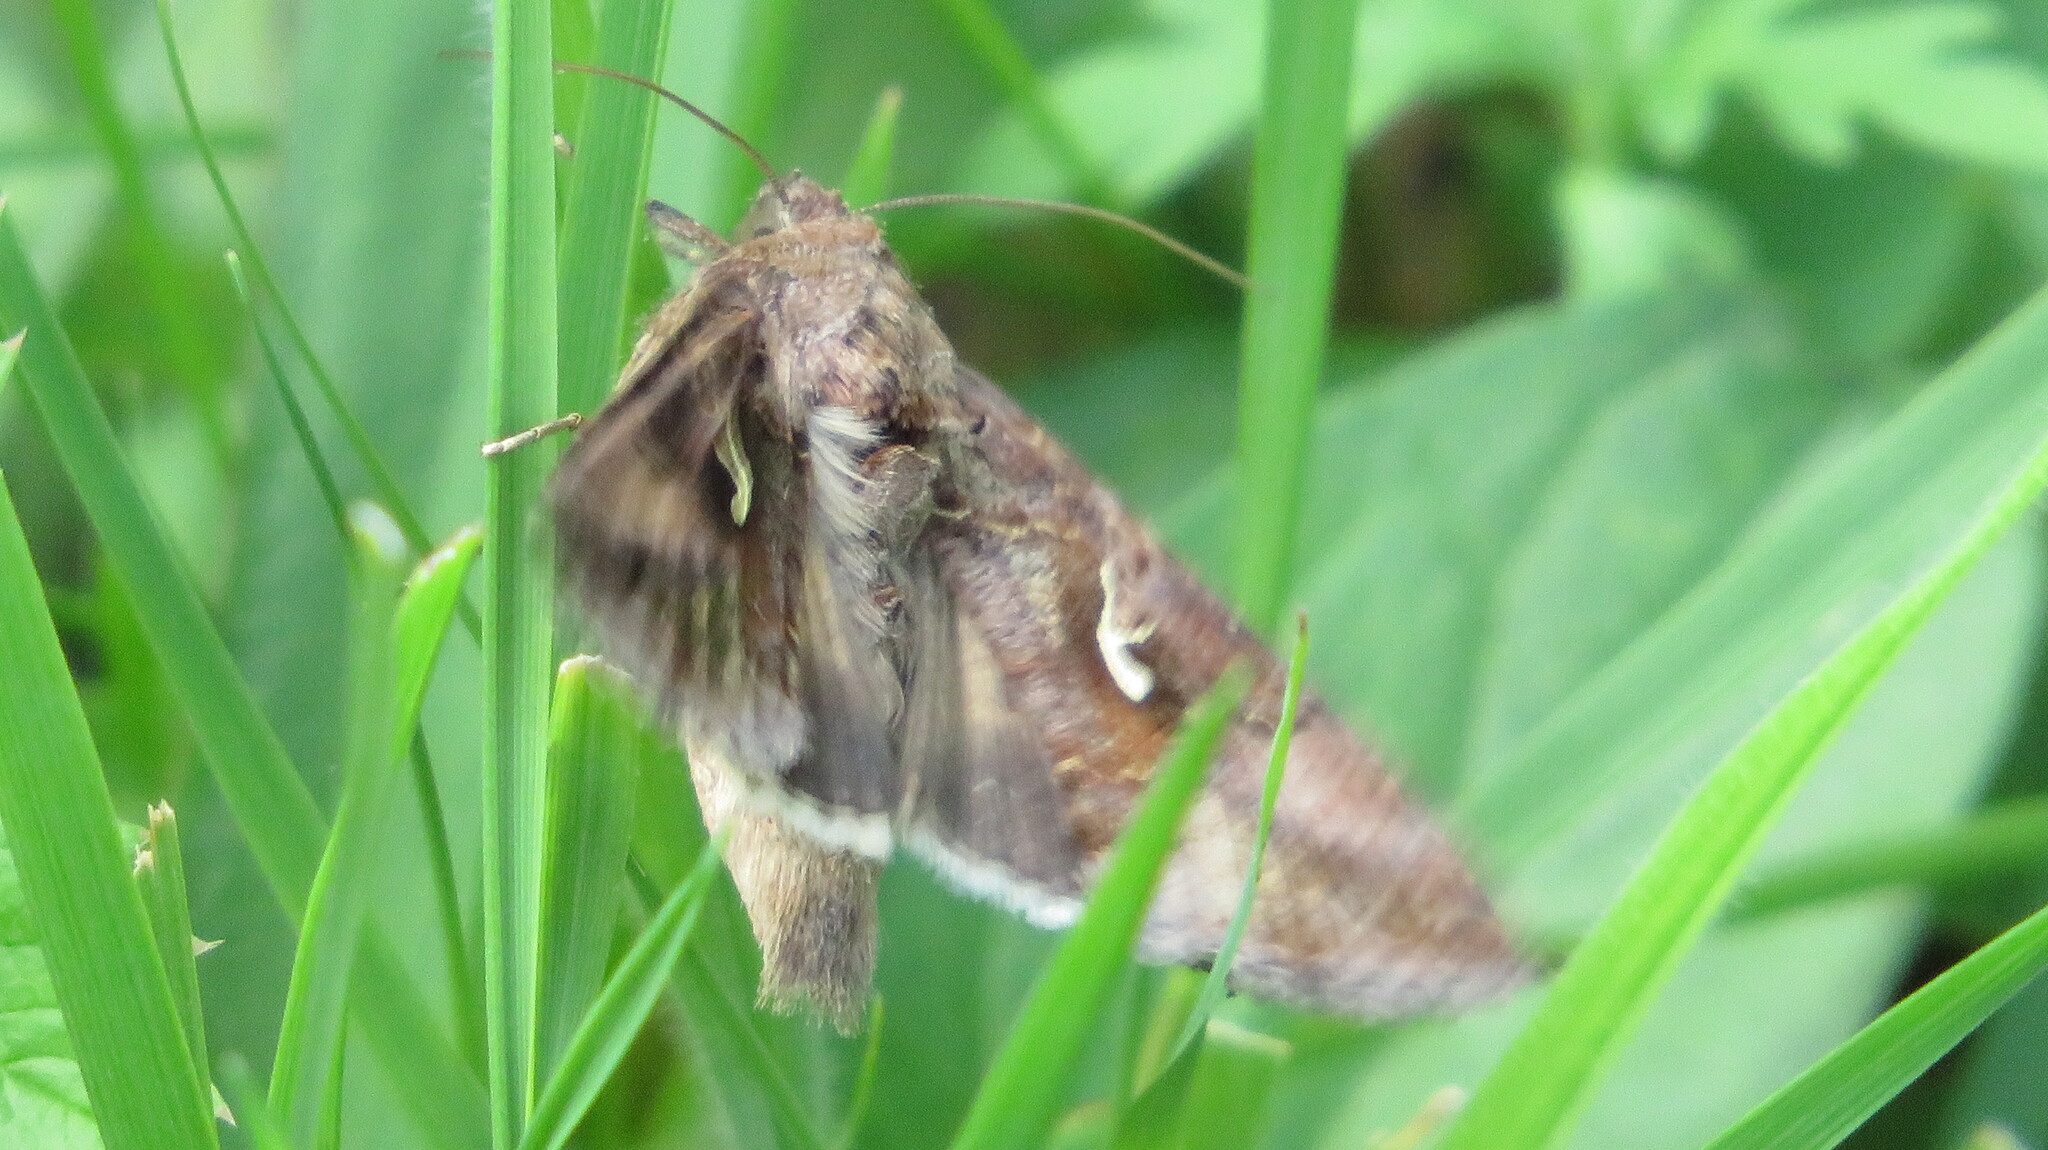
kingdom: Animalia
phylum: Arthropoda
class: Insecta
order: Lepidoptera
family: Noctuidae
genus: Autographa
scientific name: Autographa gamma
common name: Silver y
